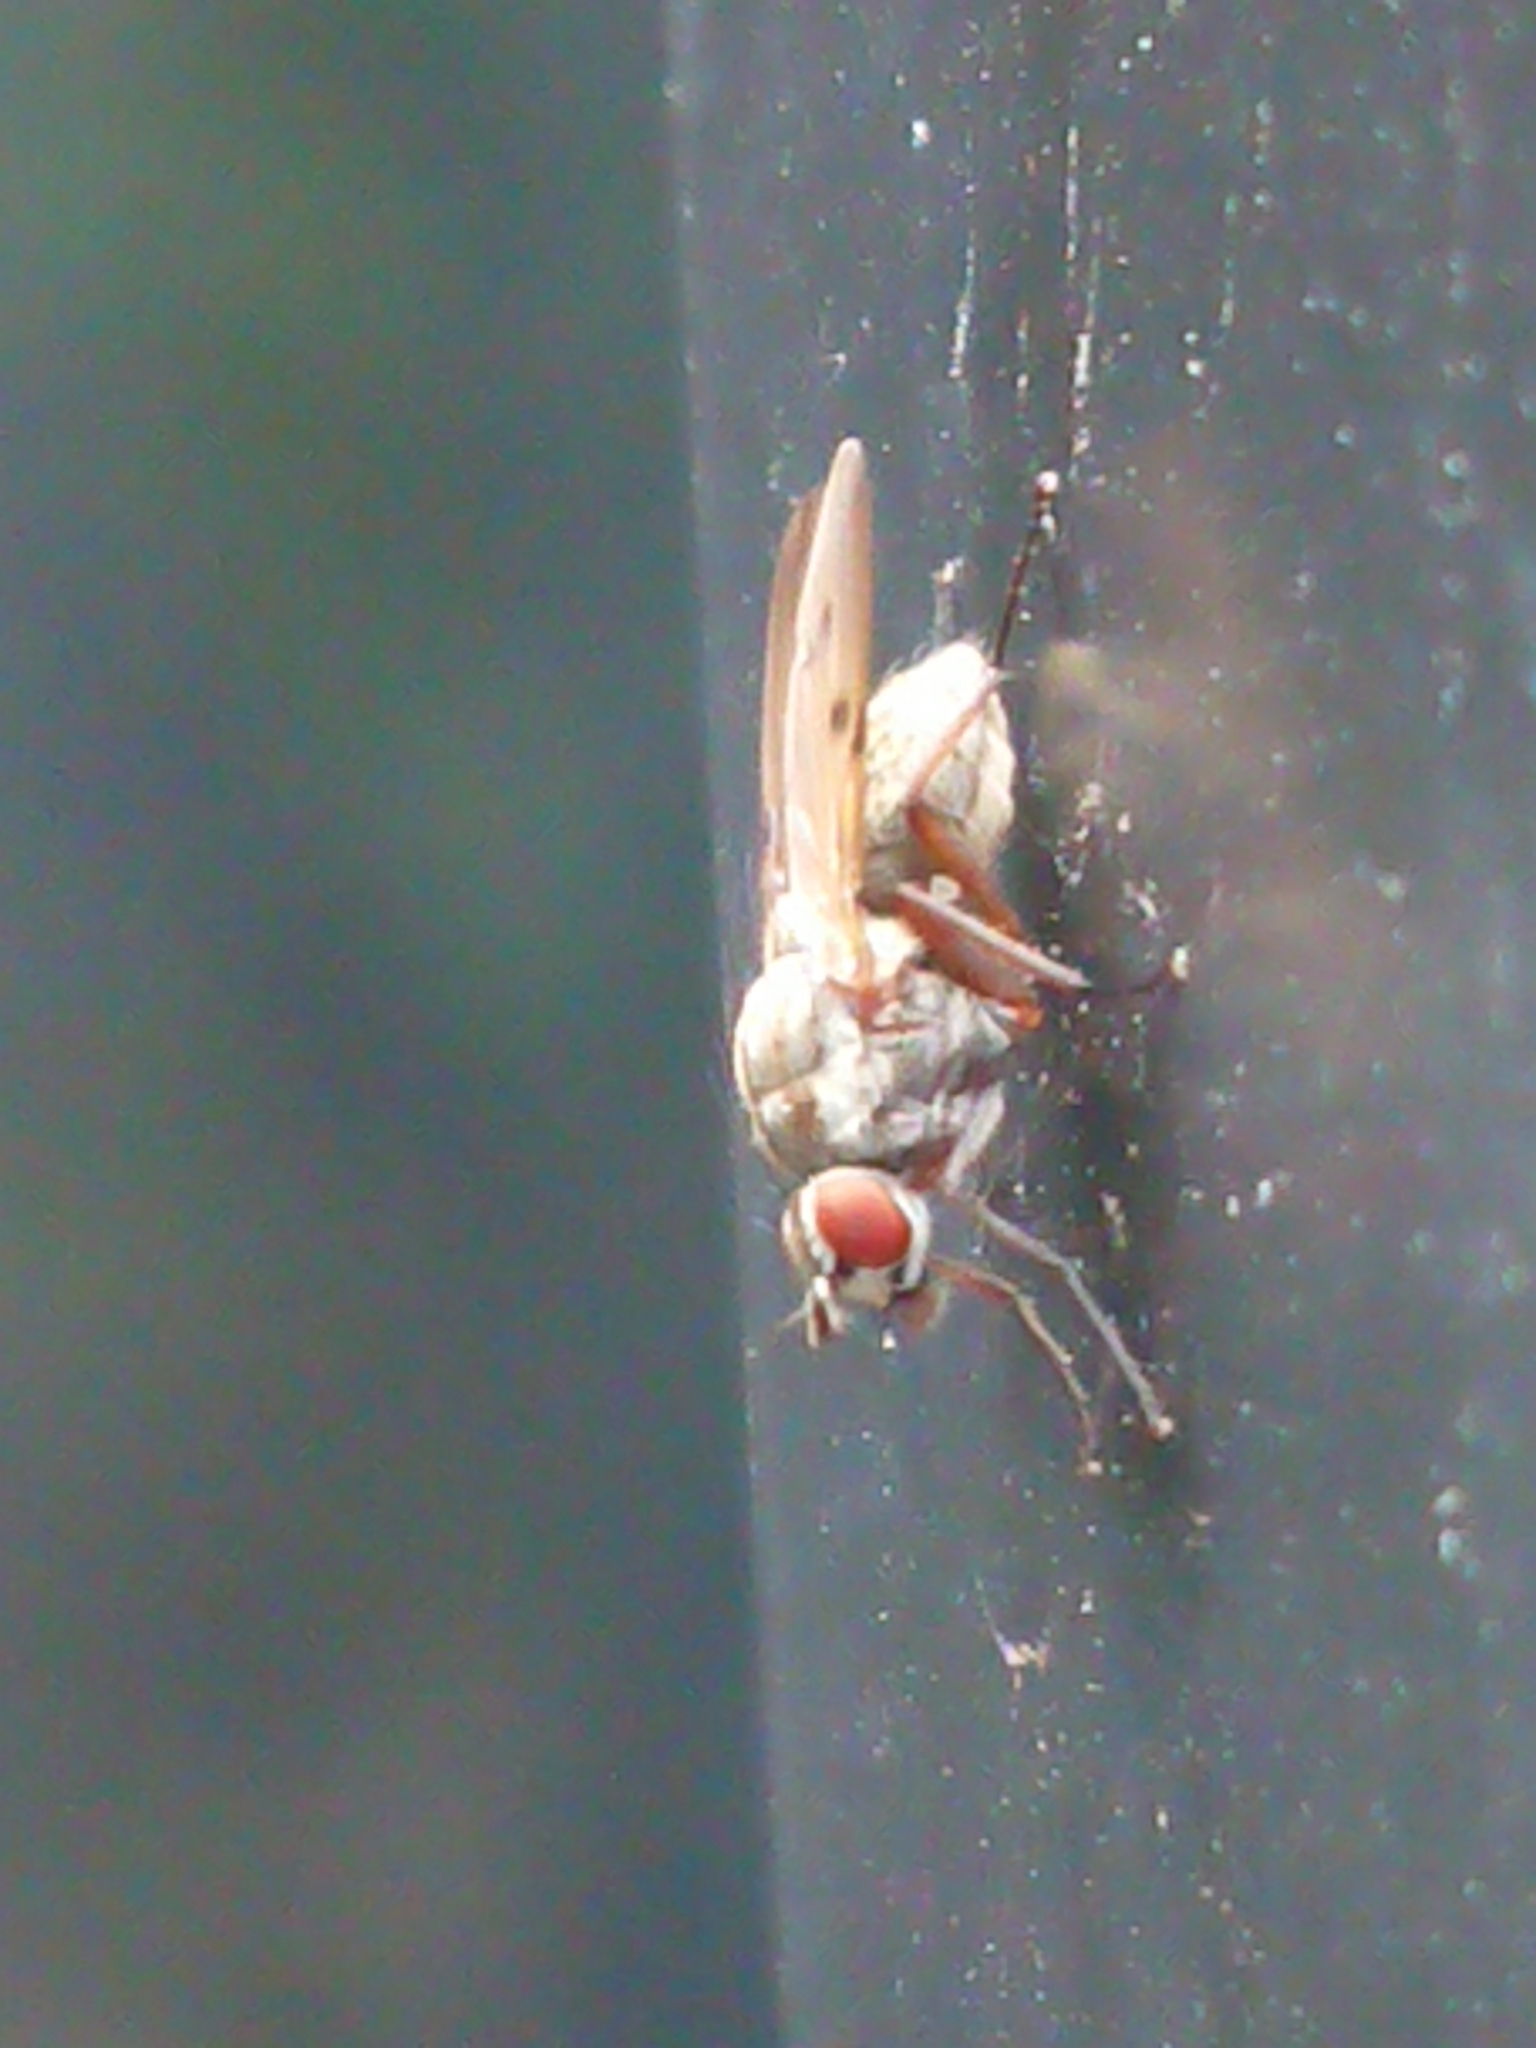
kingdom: Animalia
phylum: Arthropoda
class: Insecta
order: Diptera
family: Anthomyiidae
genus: Anthomyia
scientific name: Anthomyia punctipennis
